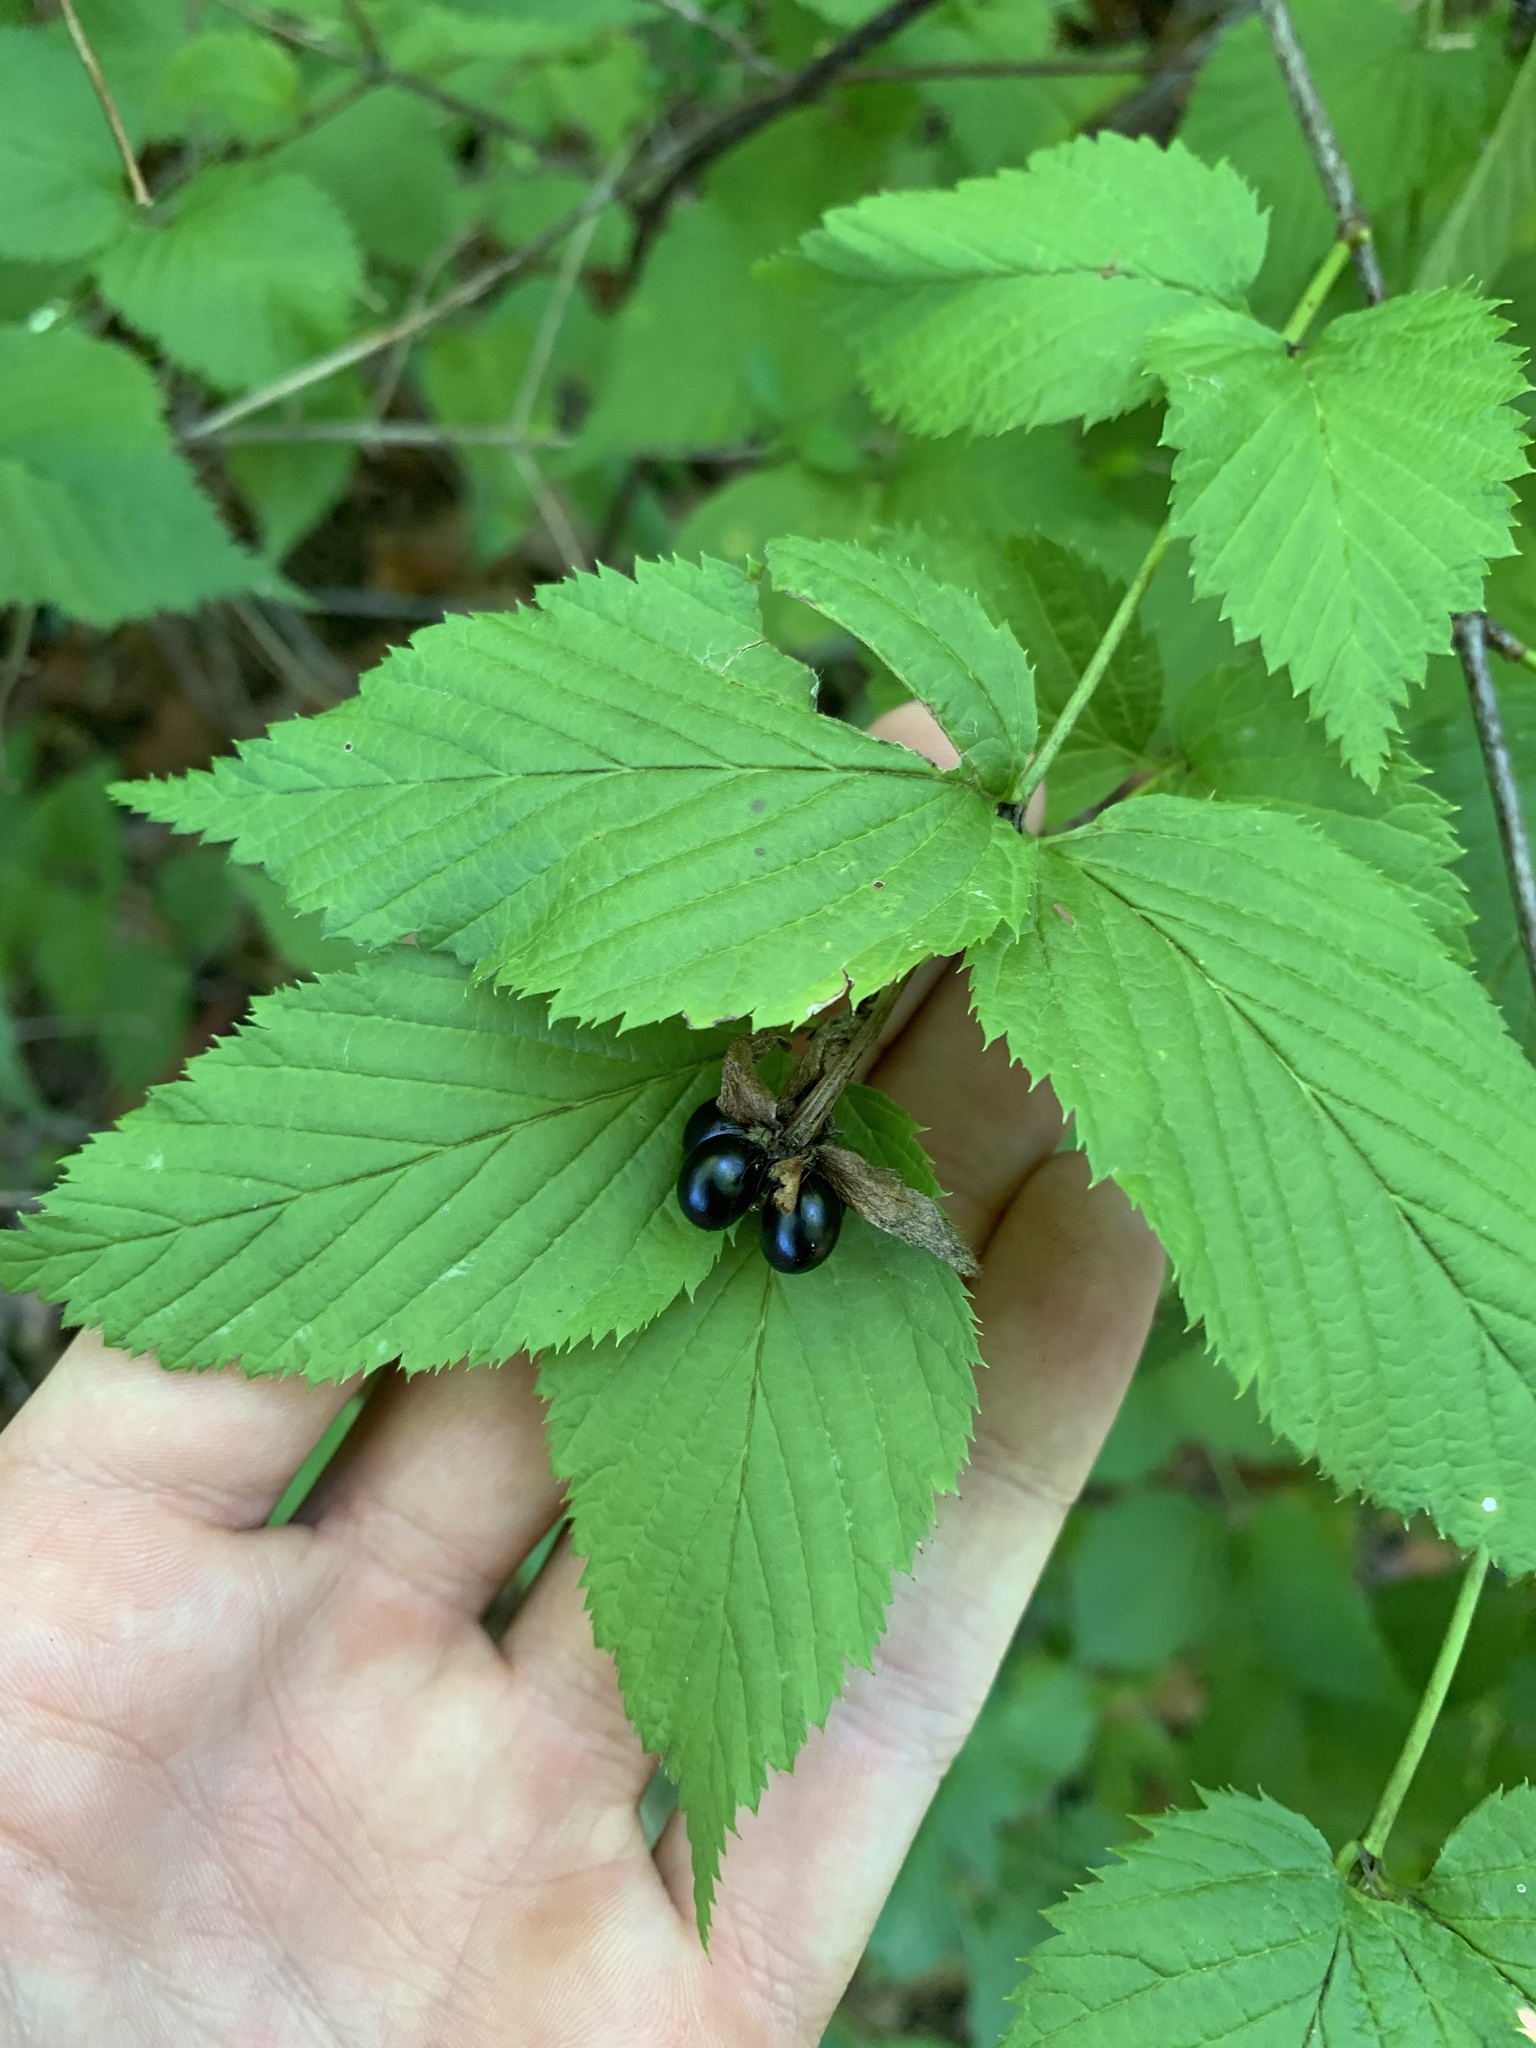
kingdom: Plantae
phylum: Tracheophyta
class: Magnoliopsida
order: Rosales
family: Rosaceae
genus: Rhodotypos
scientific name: Rhodotypos scandens
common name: Jetbead
